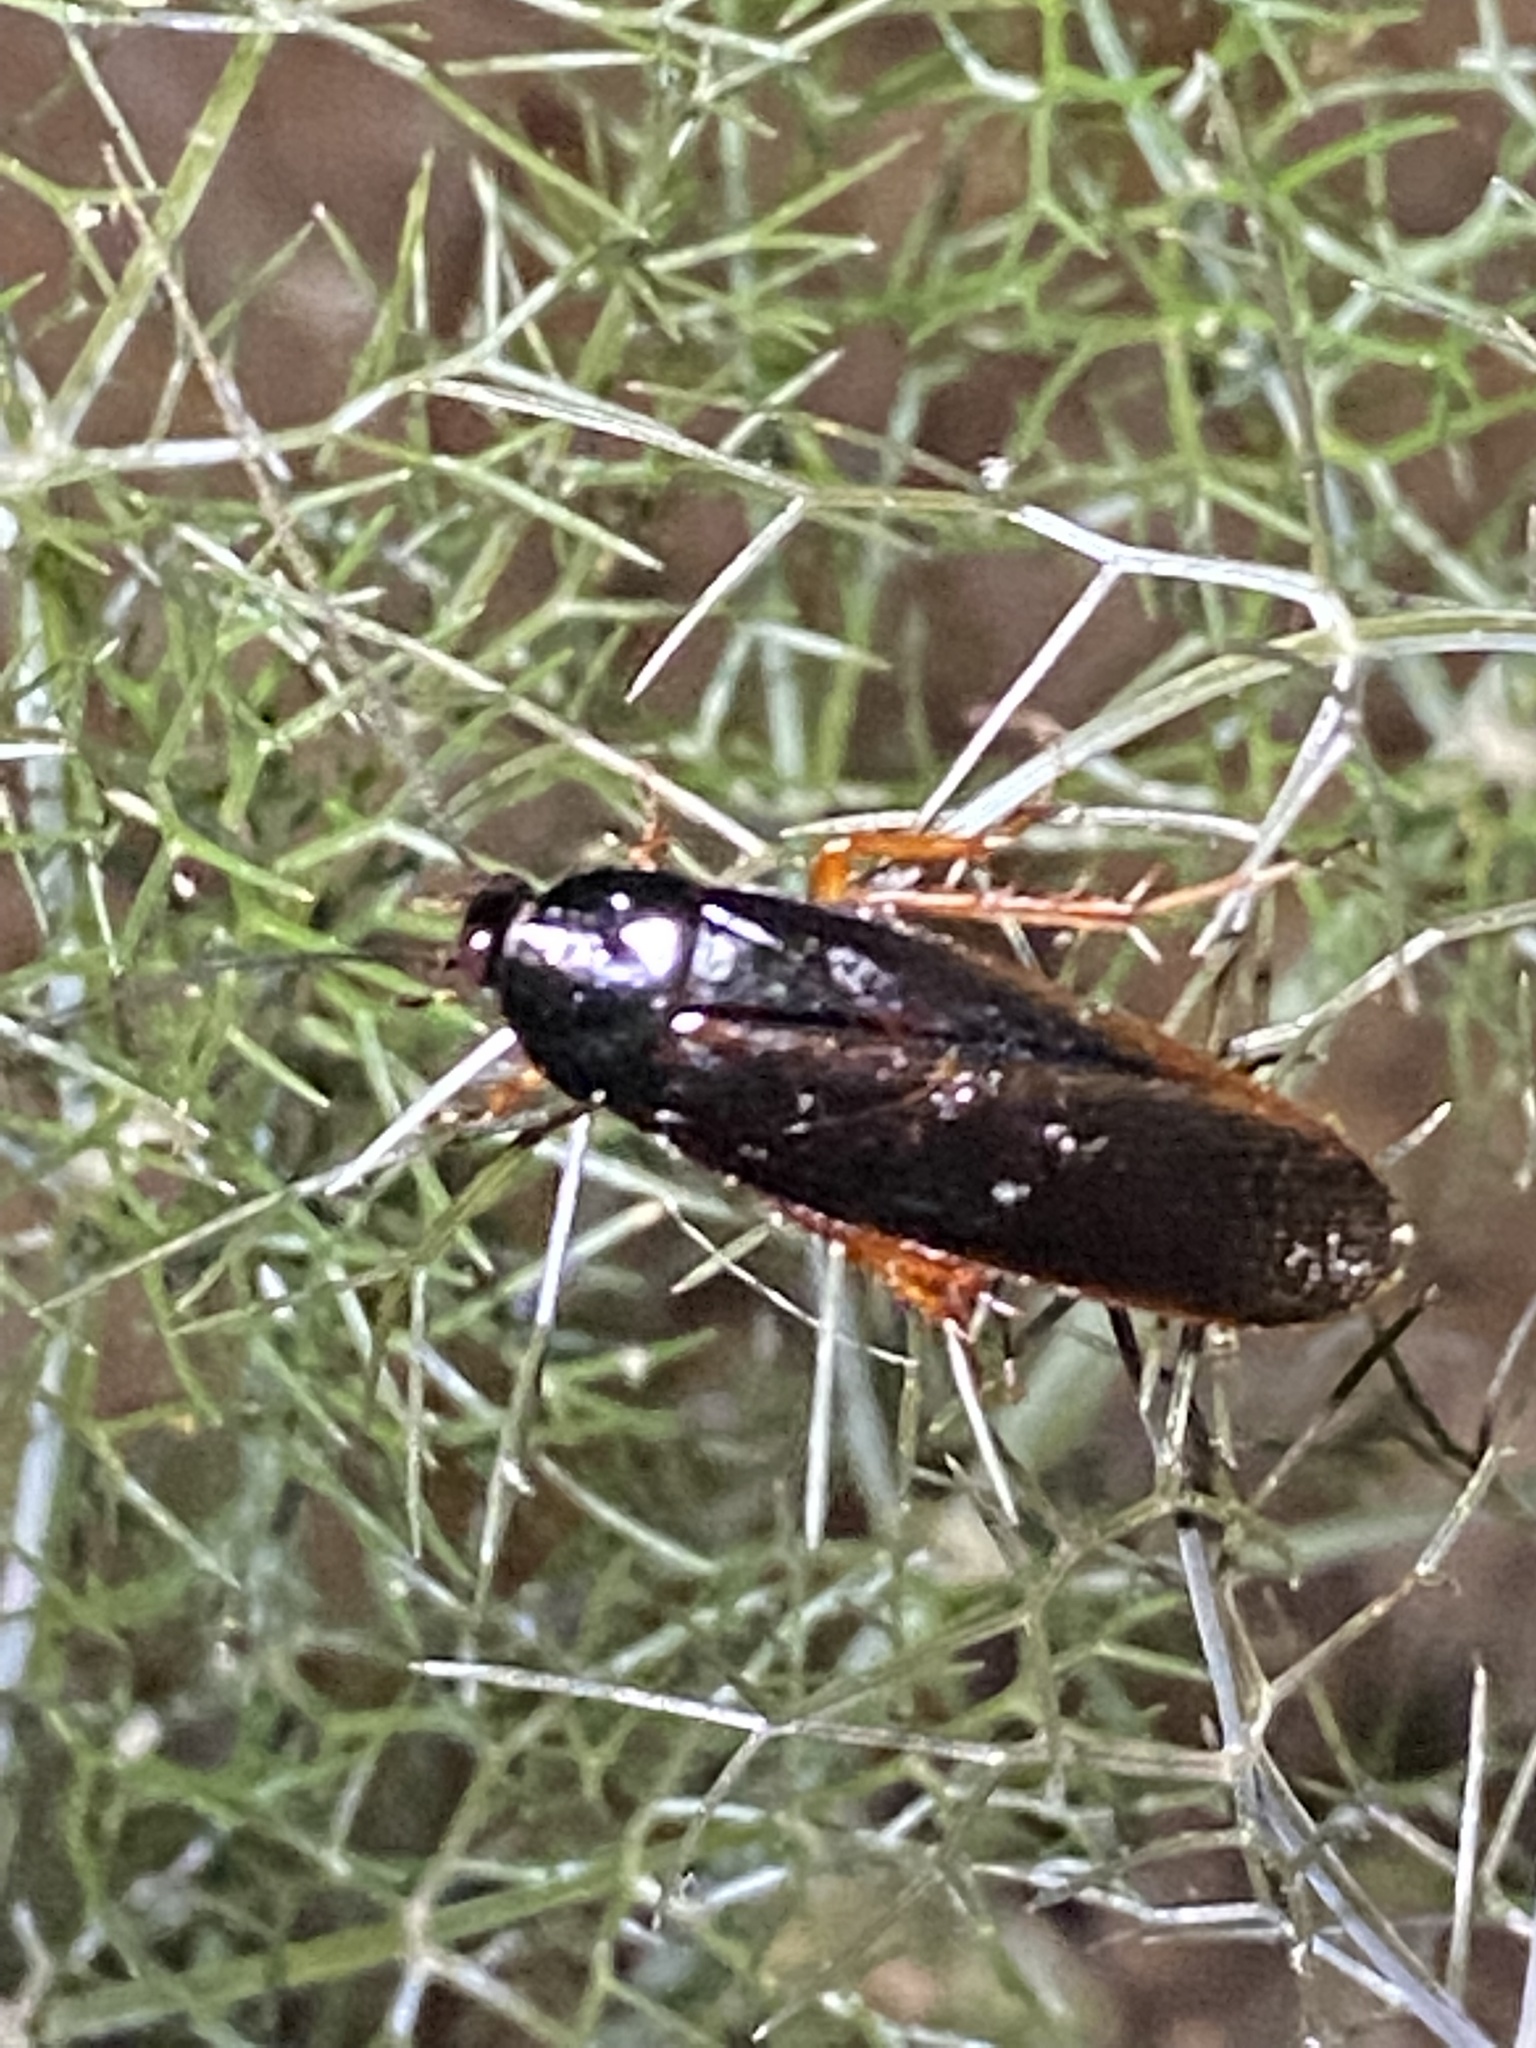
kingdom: Animalia
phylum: Arthropoda
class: Insecta
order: Blattodea
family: Ectobiidae
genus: Ischnoptera
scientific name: Ischnoptera deropeltiformis
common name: Dark wood cockroach
